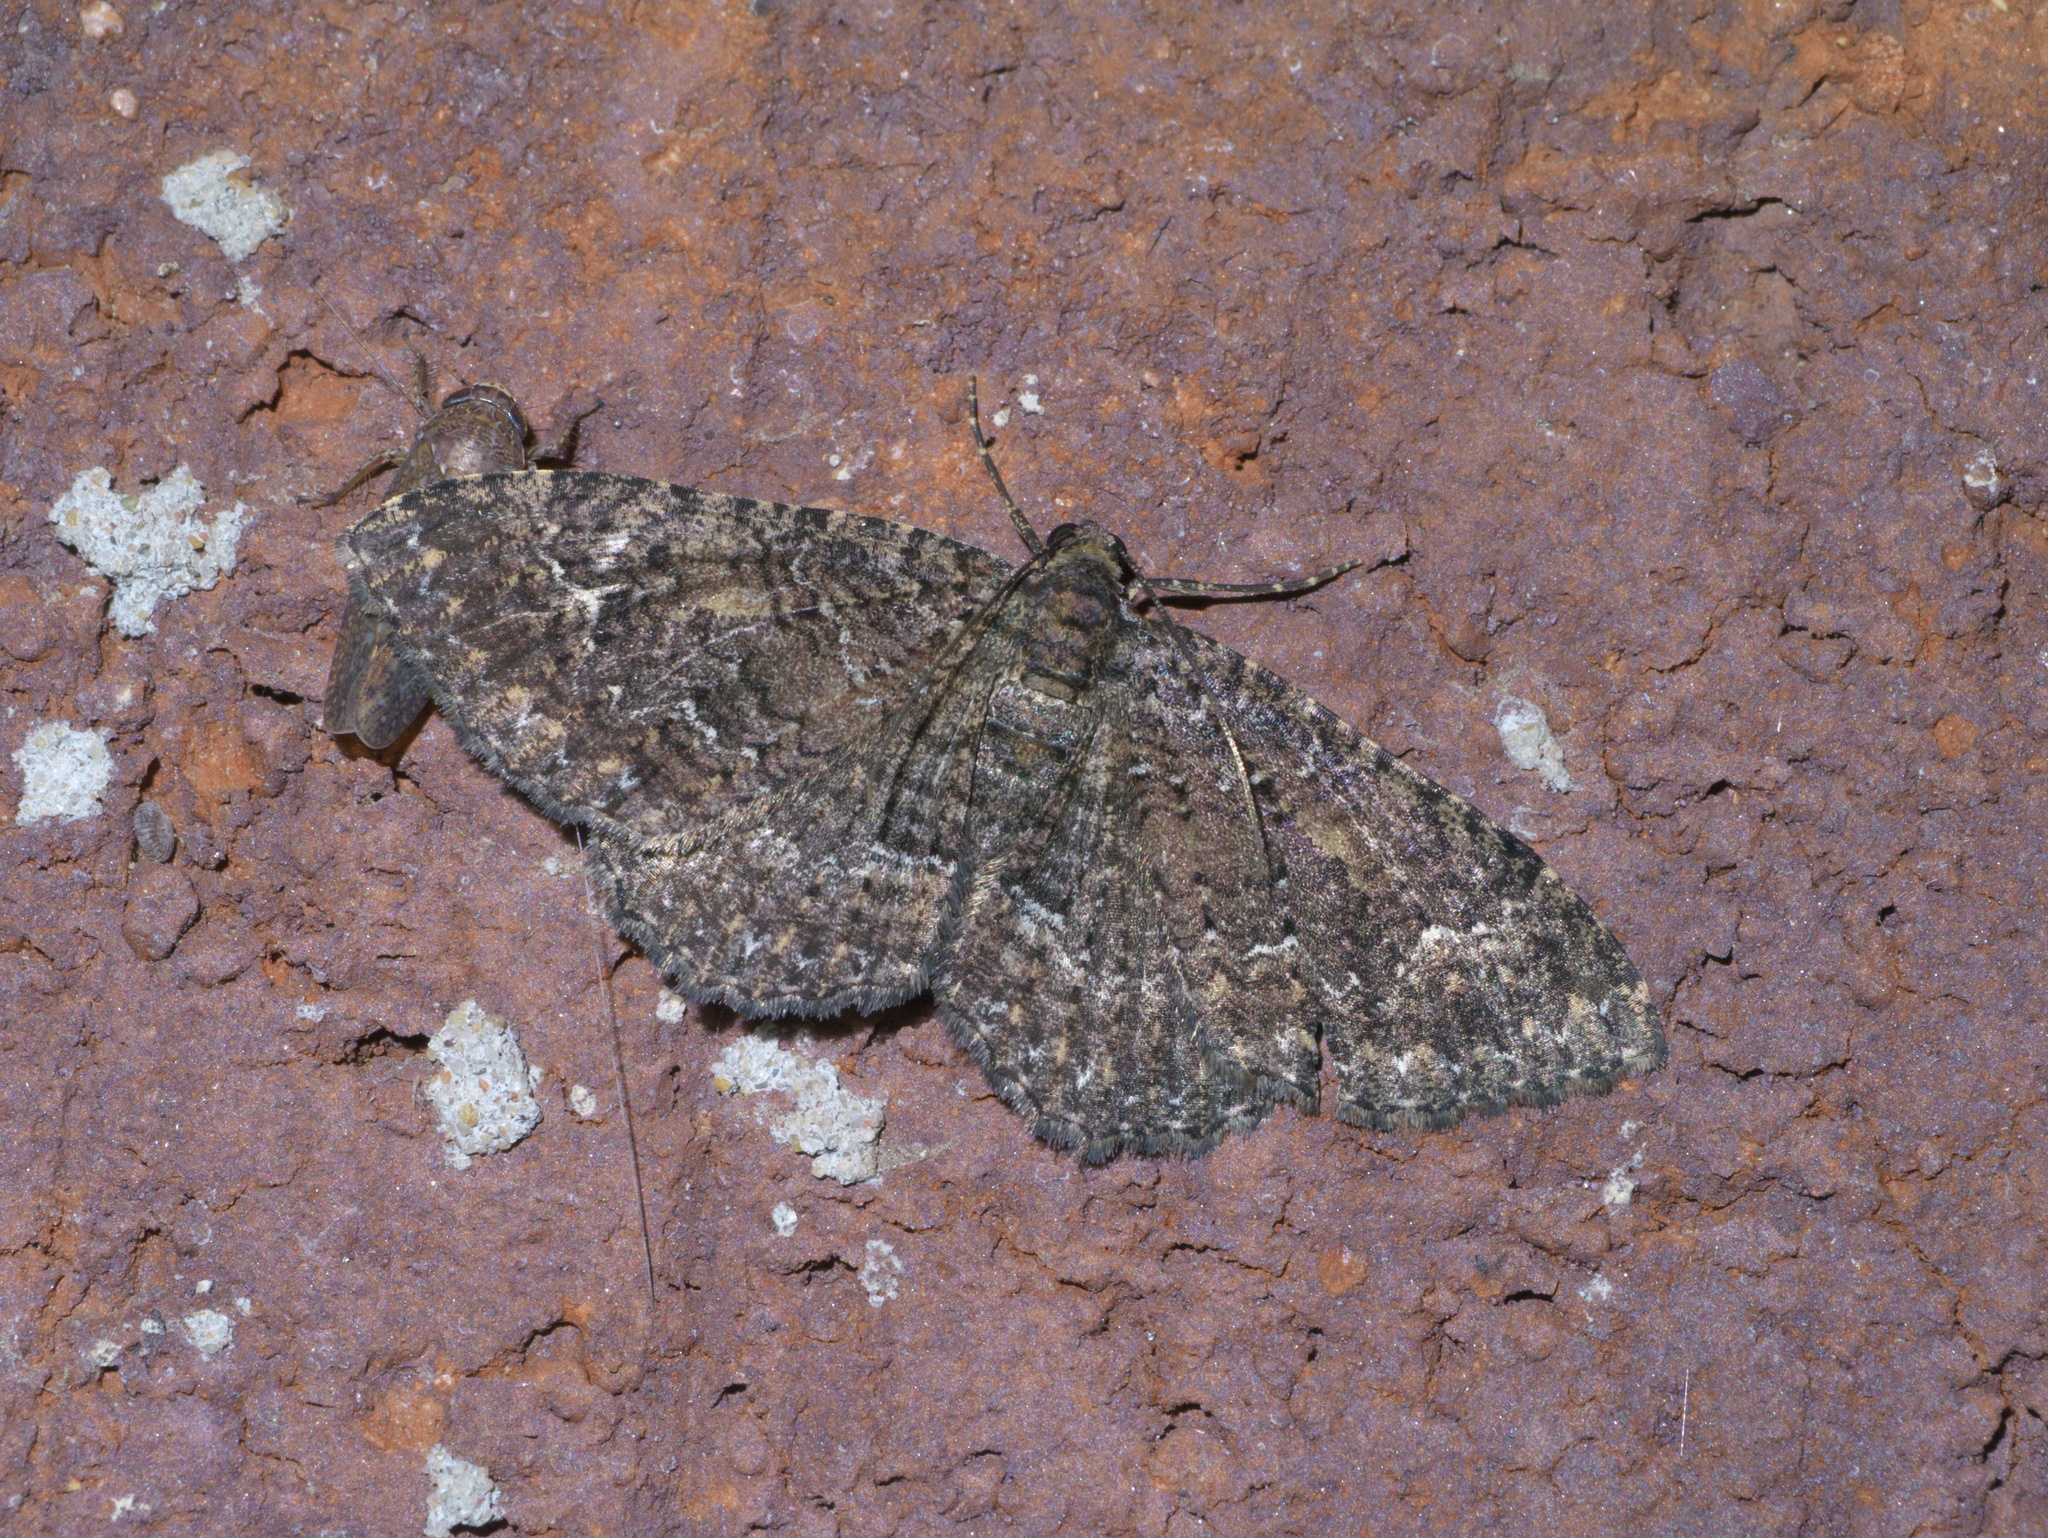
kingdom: Animalia
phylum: Arthropoda
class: Insecta
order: Lepidoptera
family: Geometridae
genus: Disclisioprocta
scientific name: Disclisioprocta stellata
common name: Somber carpet
